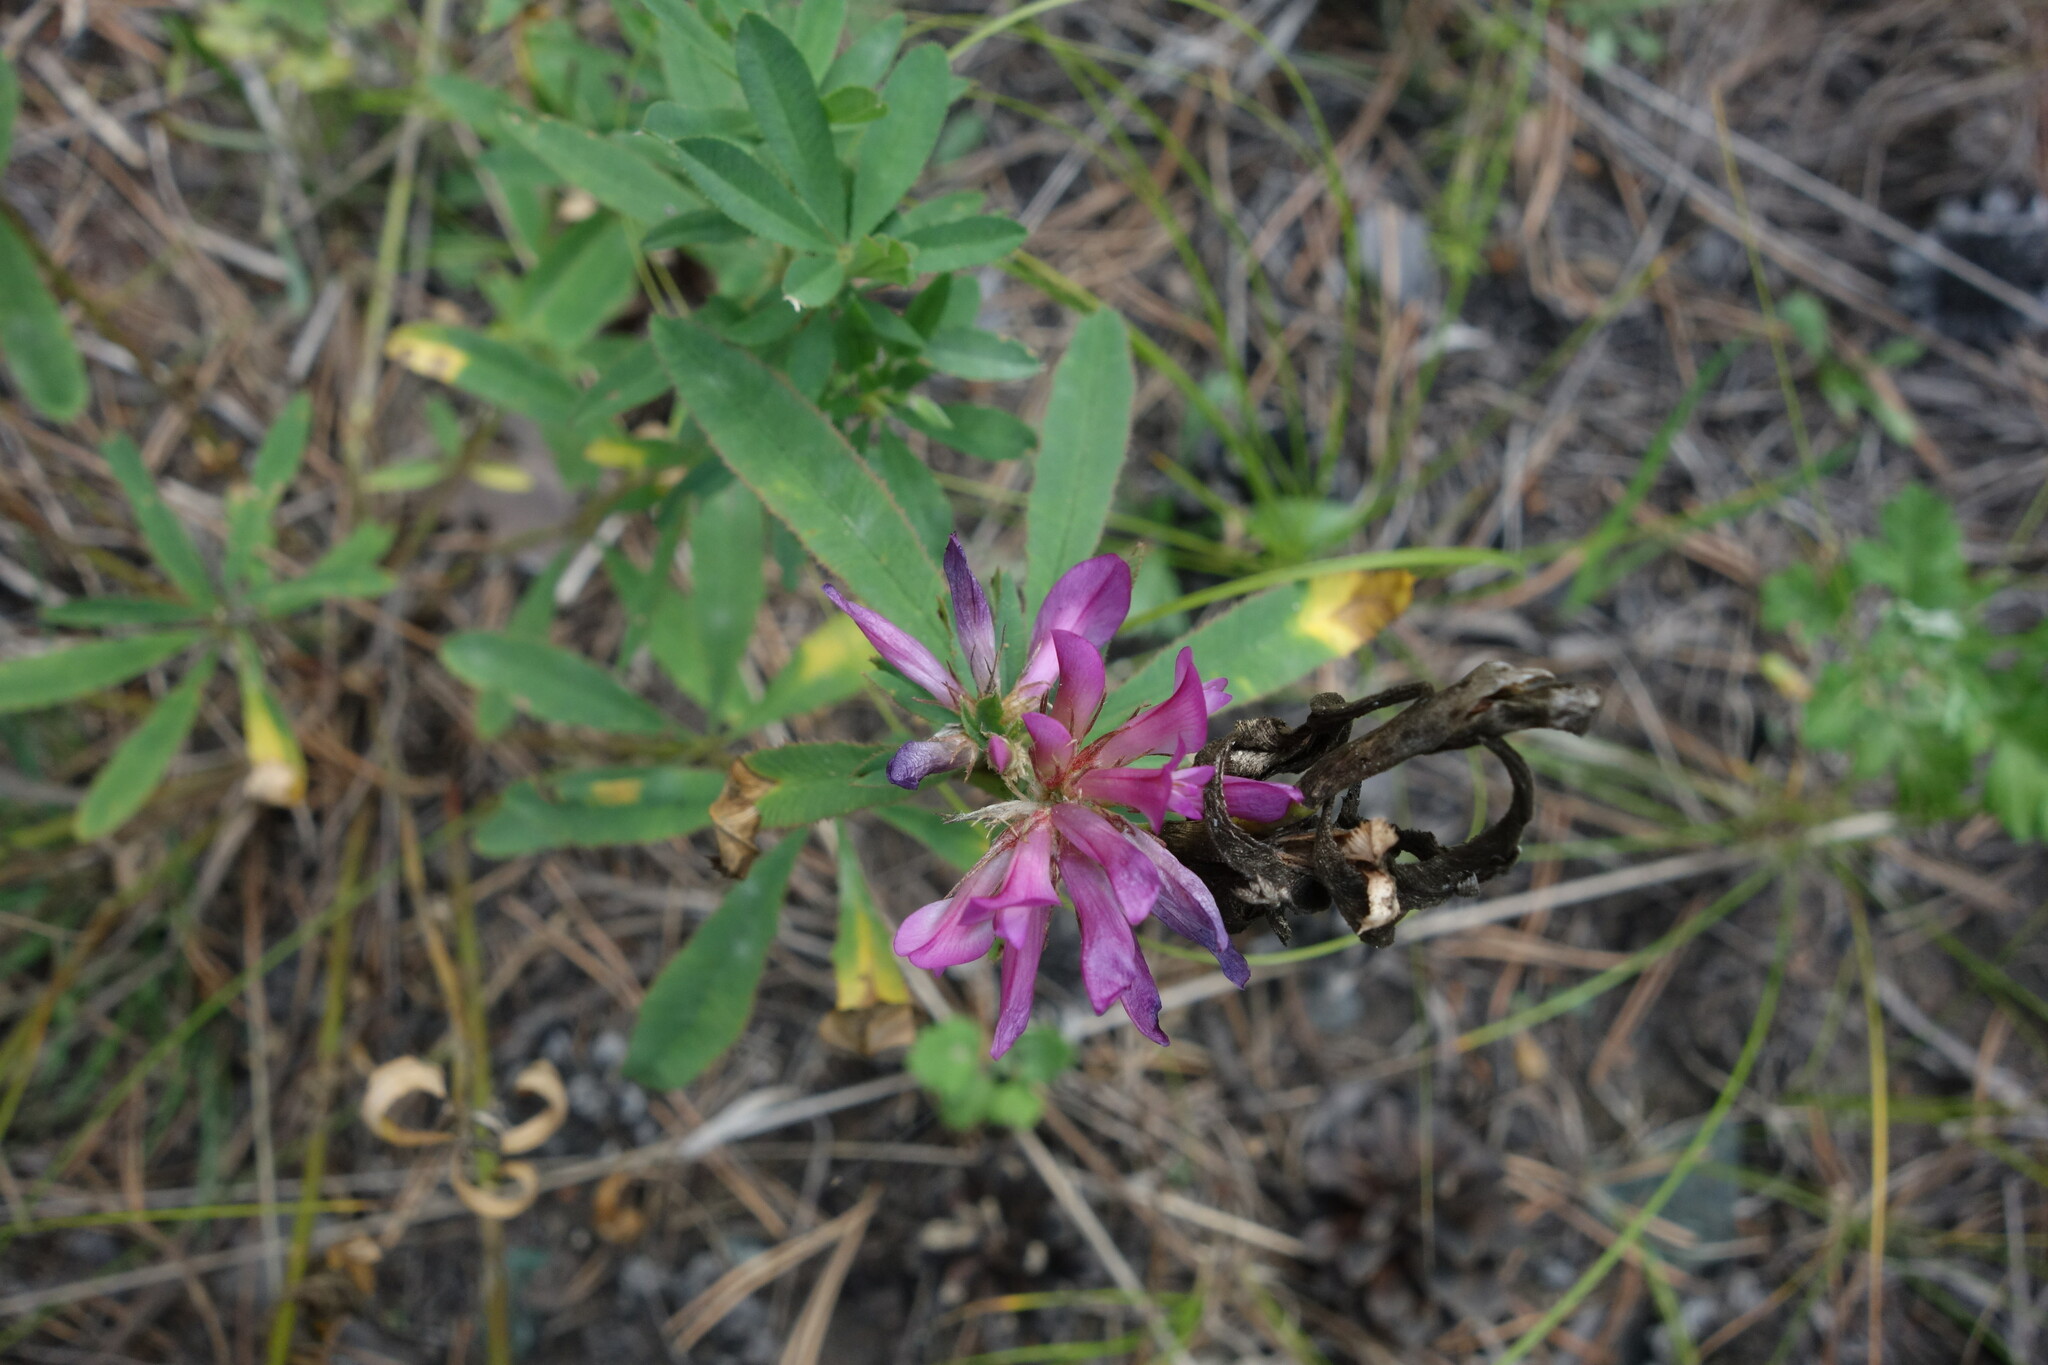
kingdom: Plantae
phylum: Tracheophyta
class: Magnoliopsida
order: Fabales
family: Fabaceae
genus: Trifolium
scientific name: Trifolium lupinaster
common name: Lupine clover
